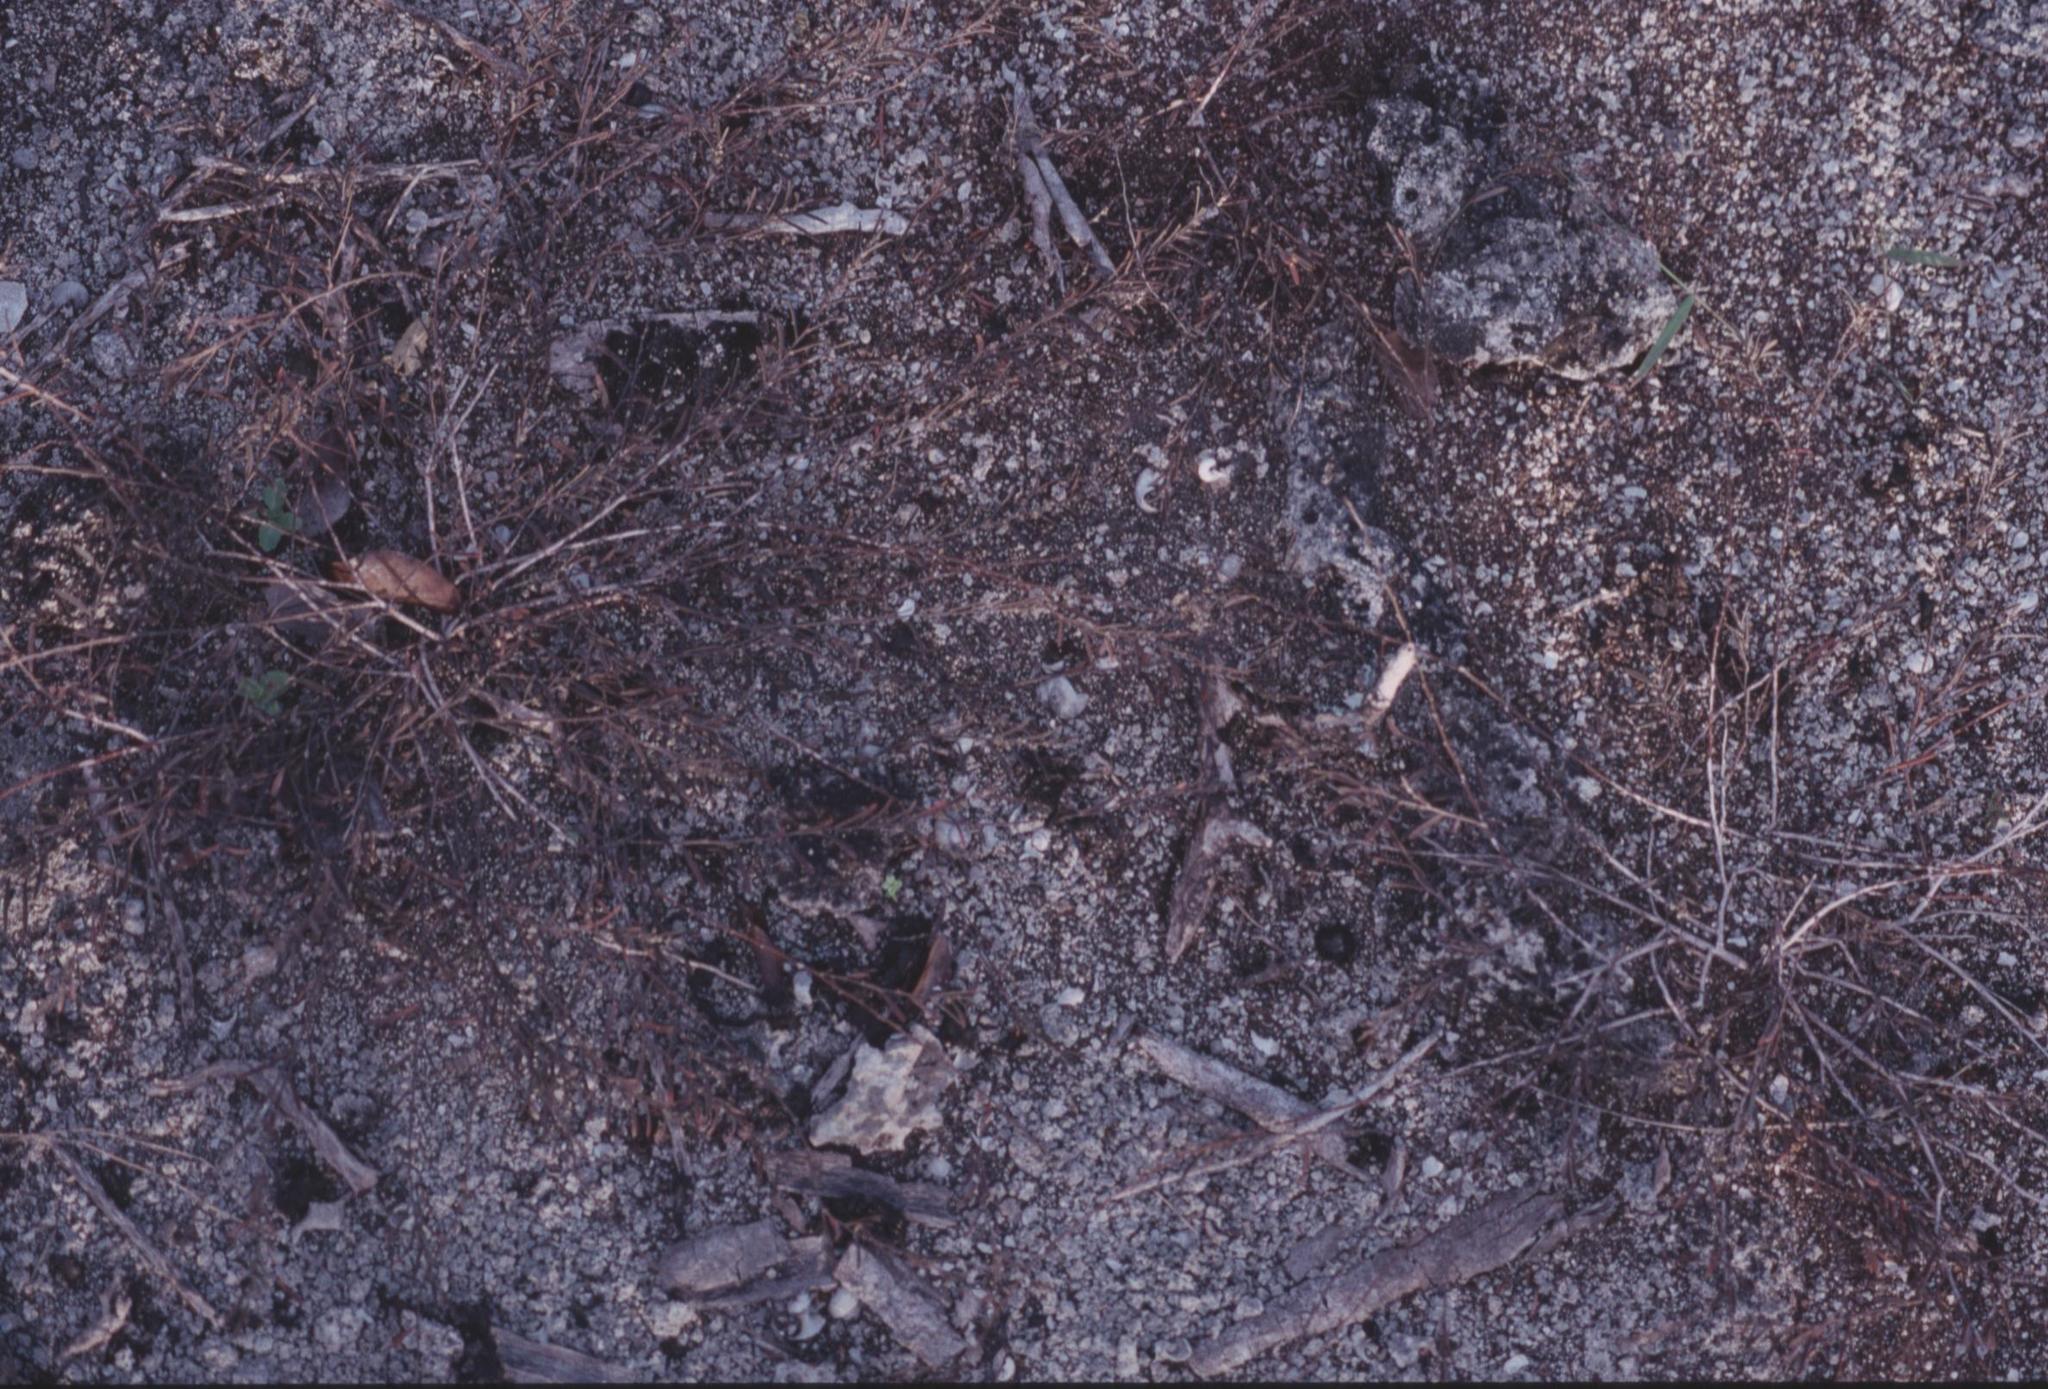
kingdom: Plantae
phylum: Tracheophyta
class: Magnoliopsida
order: Malpighiales
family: Phyllanthaceae
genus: Phyllanthus
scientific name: Phyllanthus revaughanii
